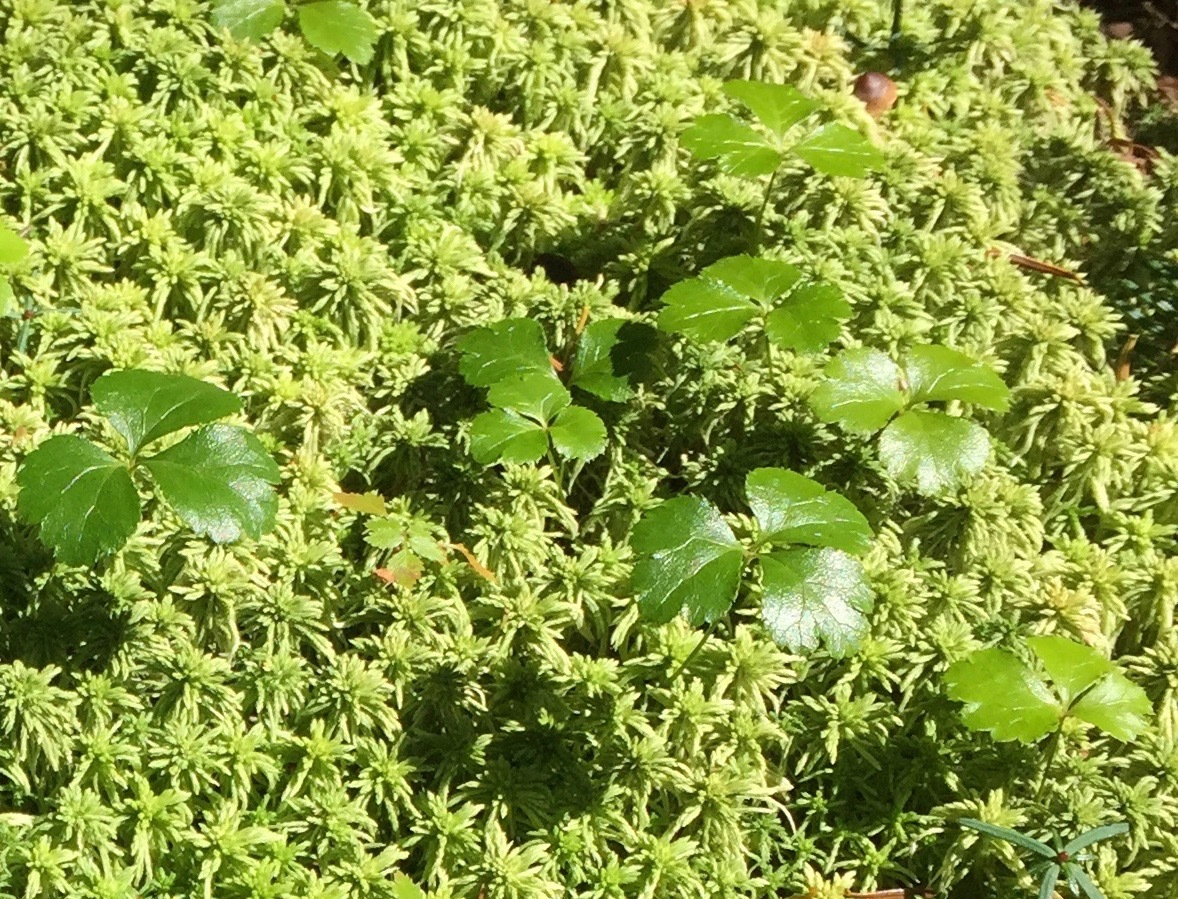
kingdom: Plantae
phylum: Tracheophyta
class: Magnoliopsida
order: Ranunculales
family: Ranunculaceae
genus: Coptis
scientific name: Coptis trifolia
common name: Canker-root
